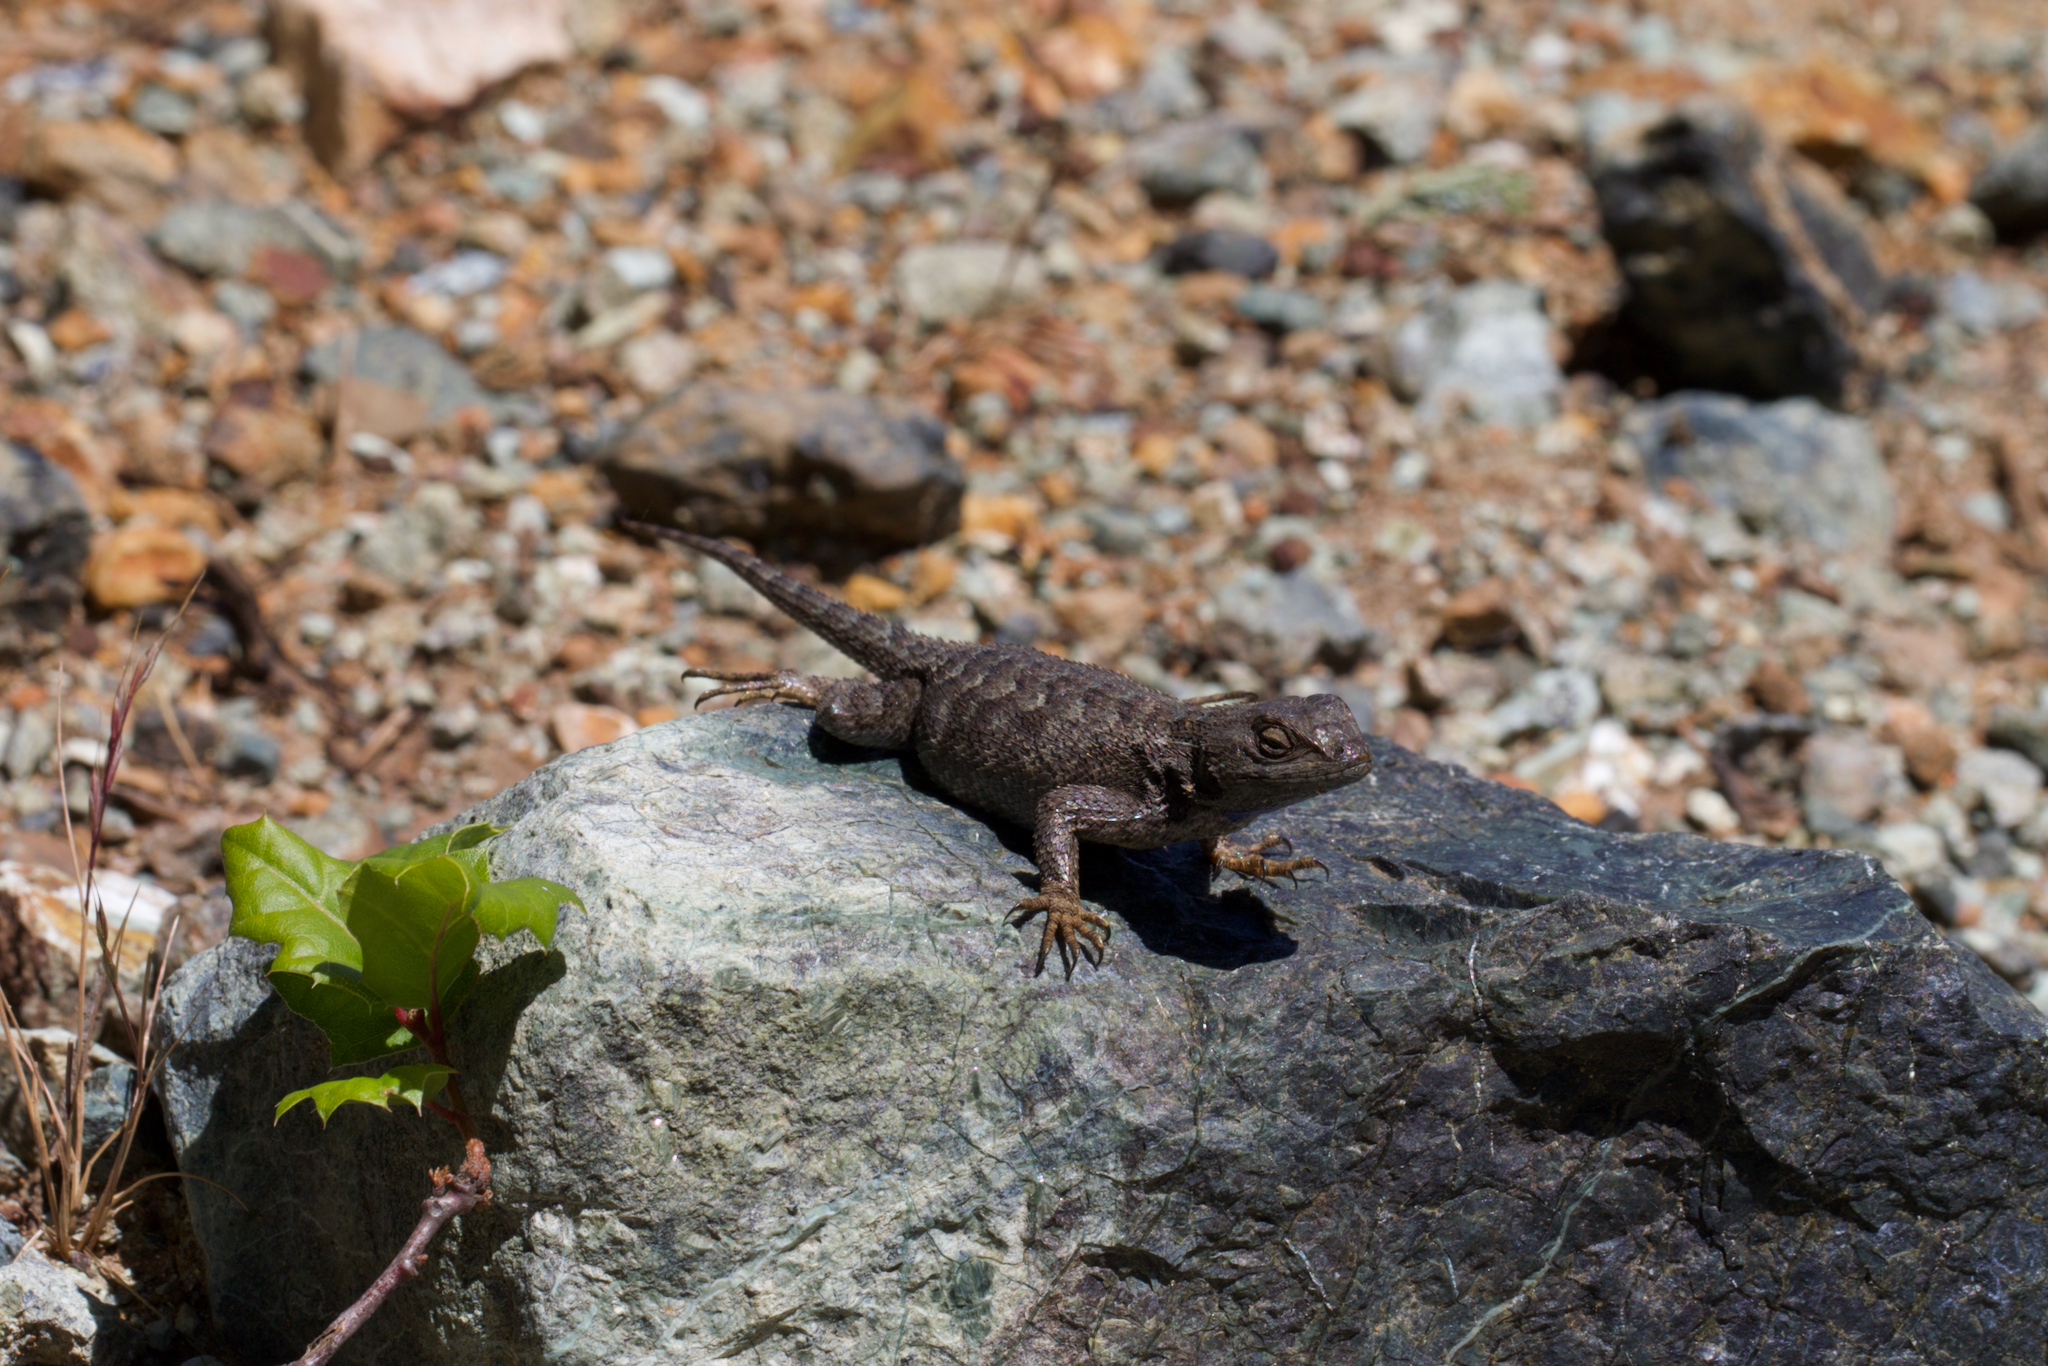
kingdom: Animalia
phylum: Chordata
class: Squamata
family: Phrynosomatidae
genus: Sceloporus
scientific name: Sceloporus occidentalis
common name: Western fence lizard
